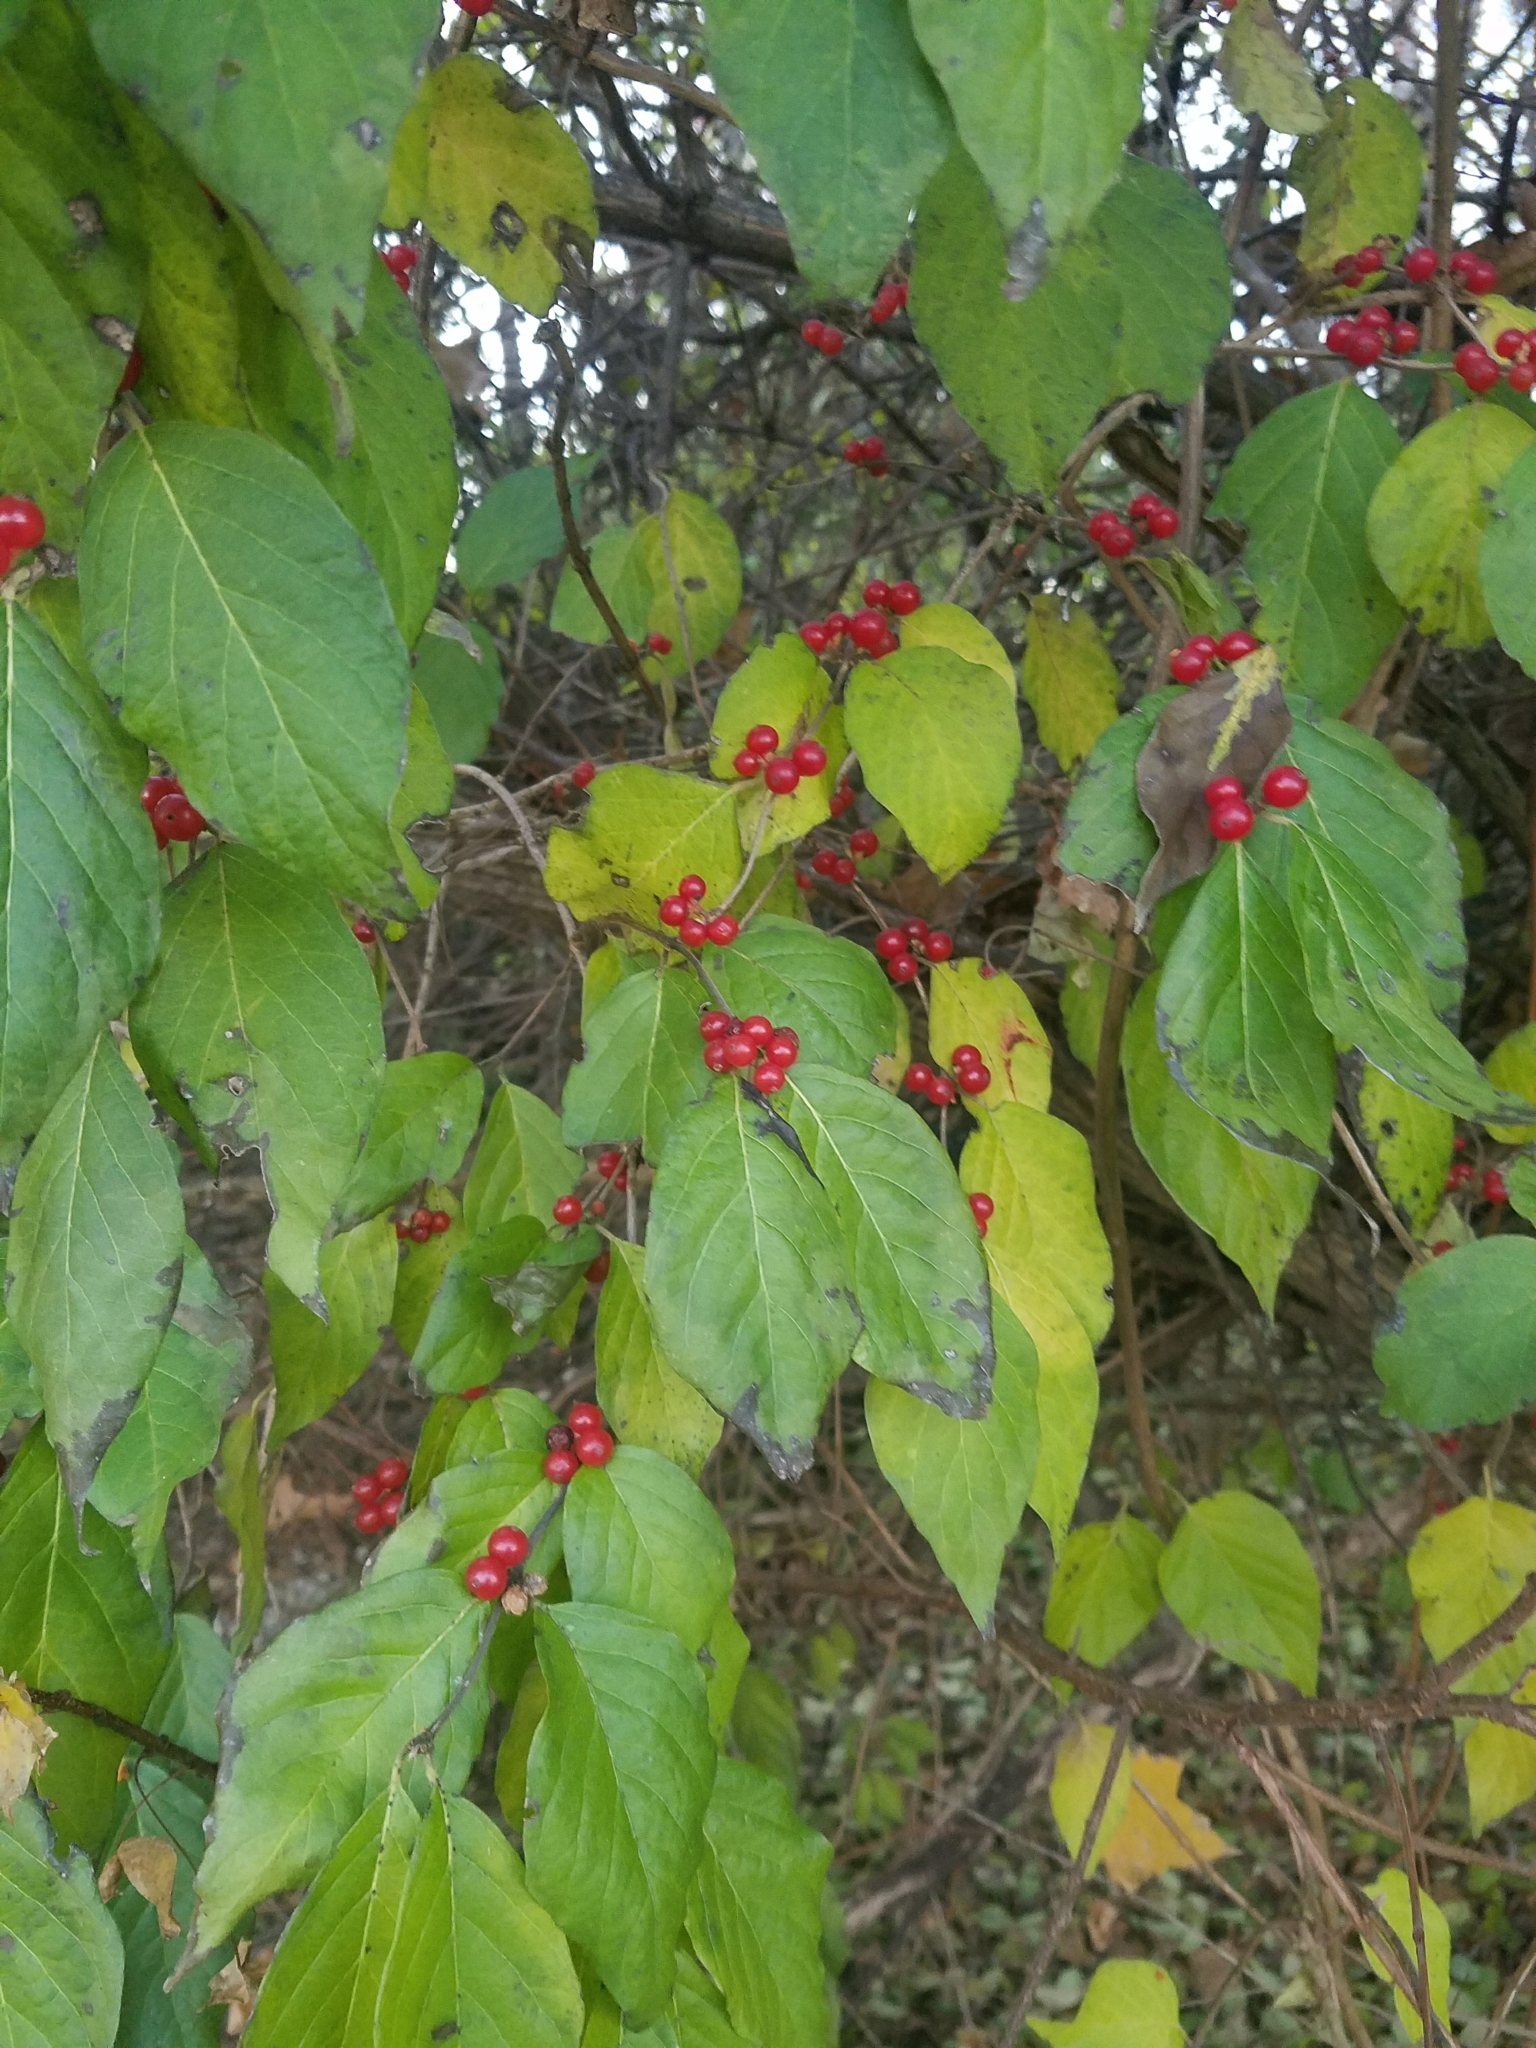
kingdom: Plantae
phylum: Tracheophyta
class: Magnoliopsida
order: Dipsacales
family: Caprifoliaceae
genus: Lonicera
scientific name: Lonicera maackii
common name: Amur honeysuckle
